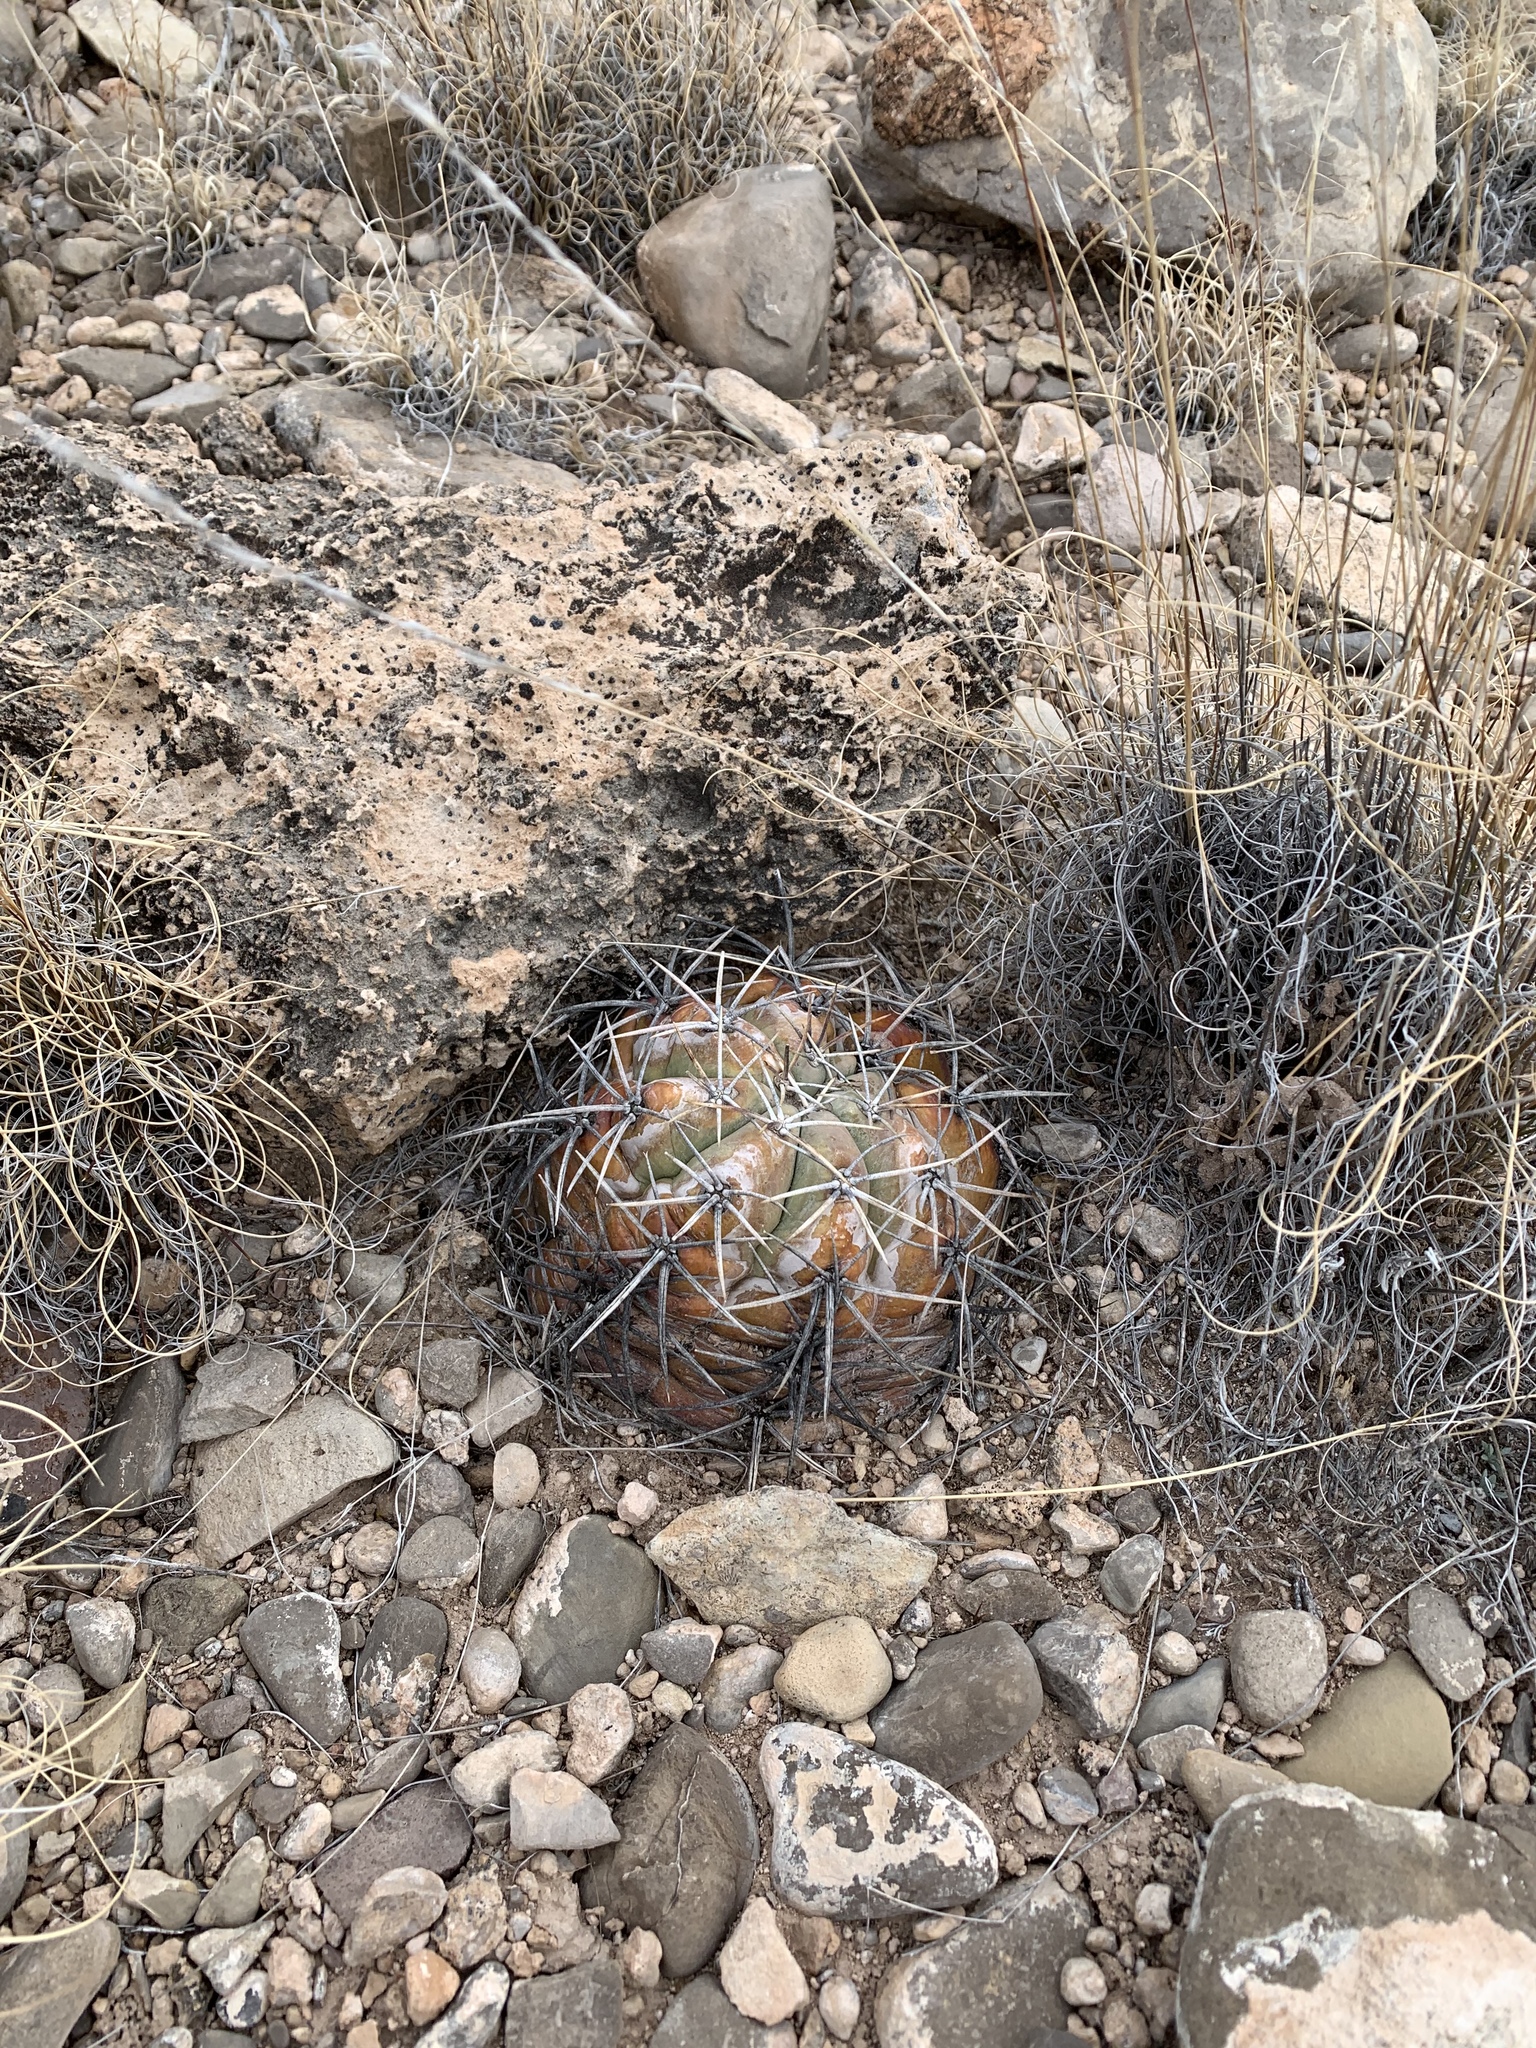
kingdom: Plantae
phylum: Tracheophyta
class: Magnoliopsida
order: Caryophyllales
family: Cactaceae
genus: Echinocactus
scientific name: Echinocactus horizonthalonius
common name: Devilshead
